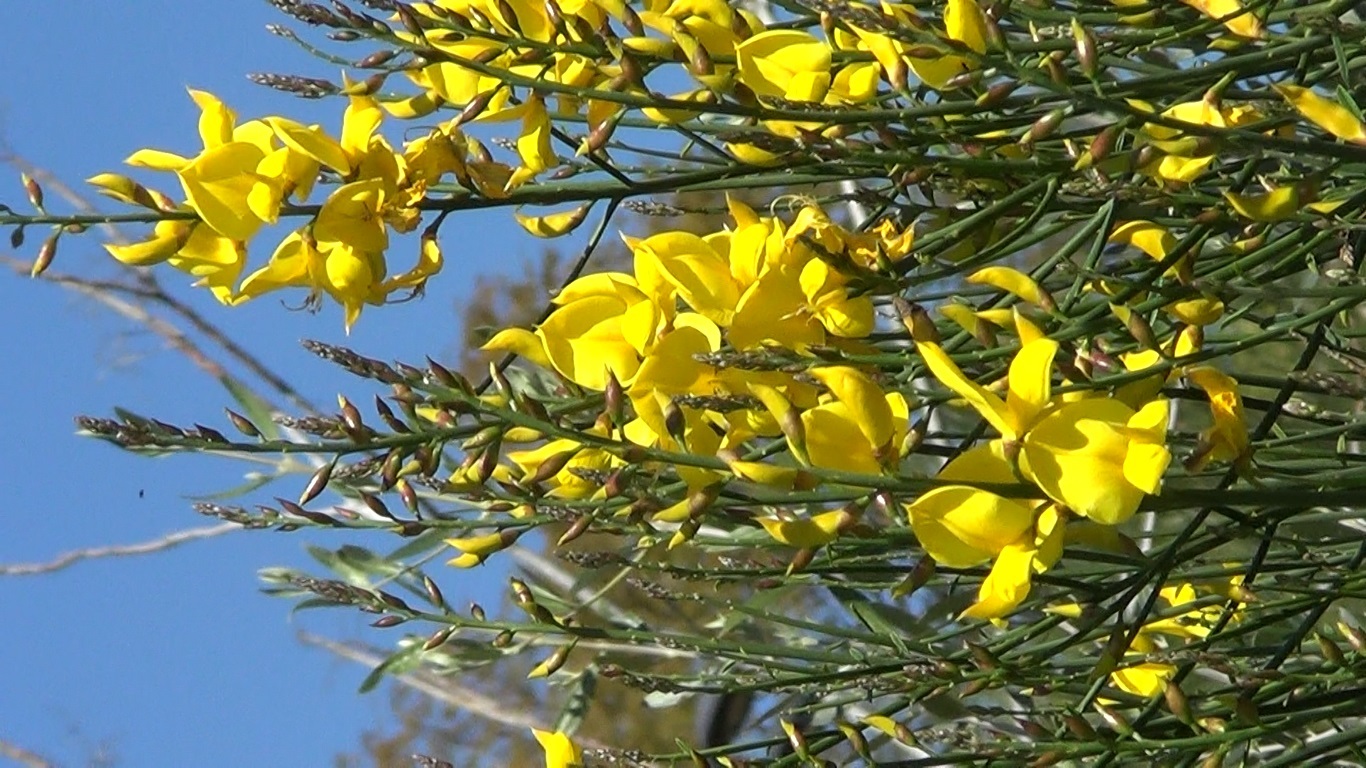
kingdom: Plantae
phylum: Tracheophyta
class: Magnoliopsida
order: Fabales
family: Fabaceae
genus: Spartium
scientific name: Spartium junceum
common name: Spanish broom
